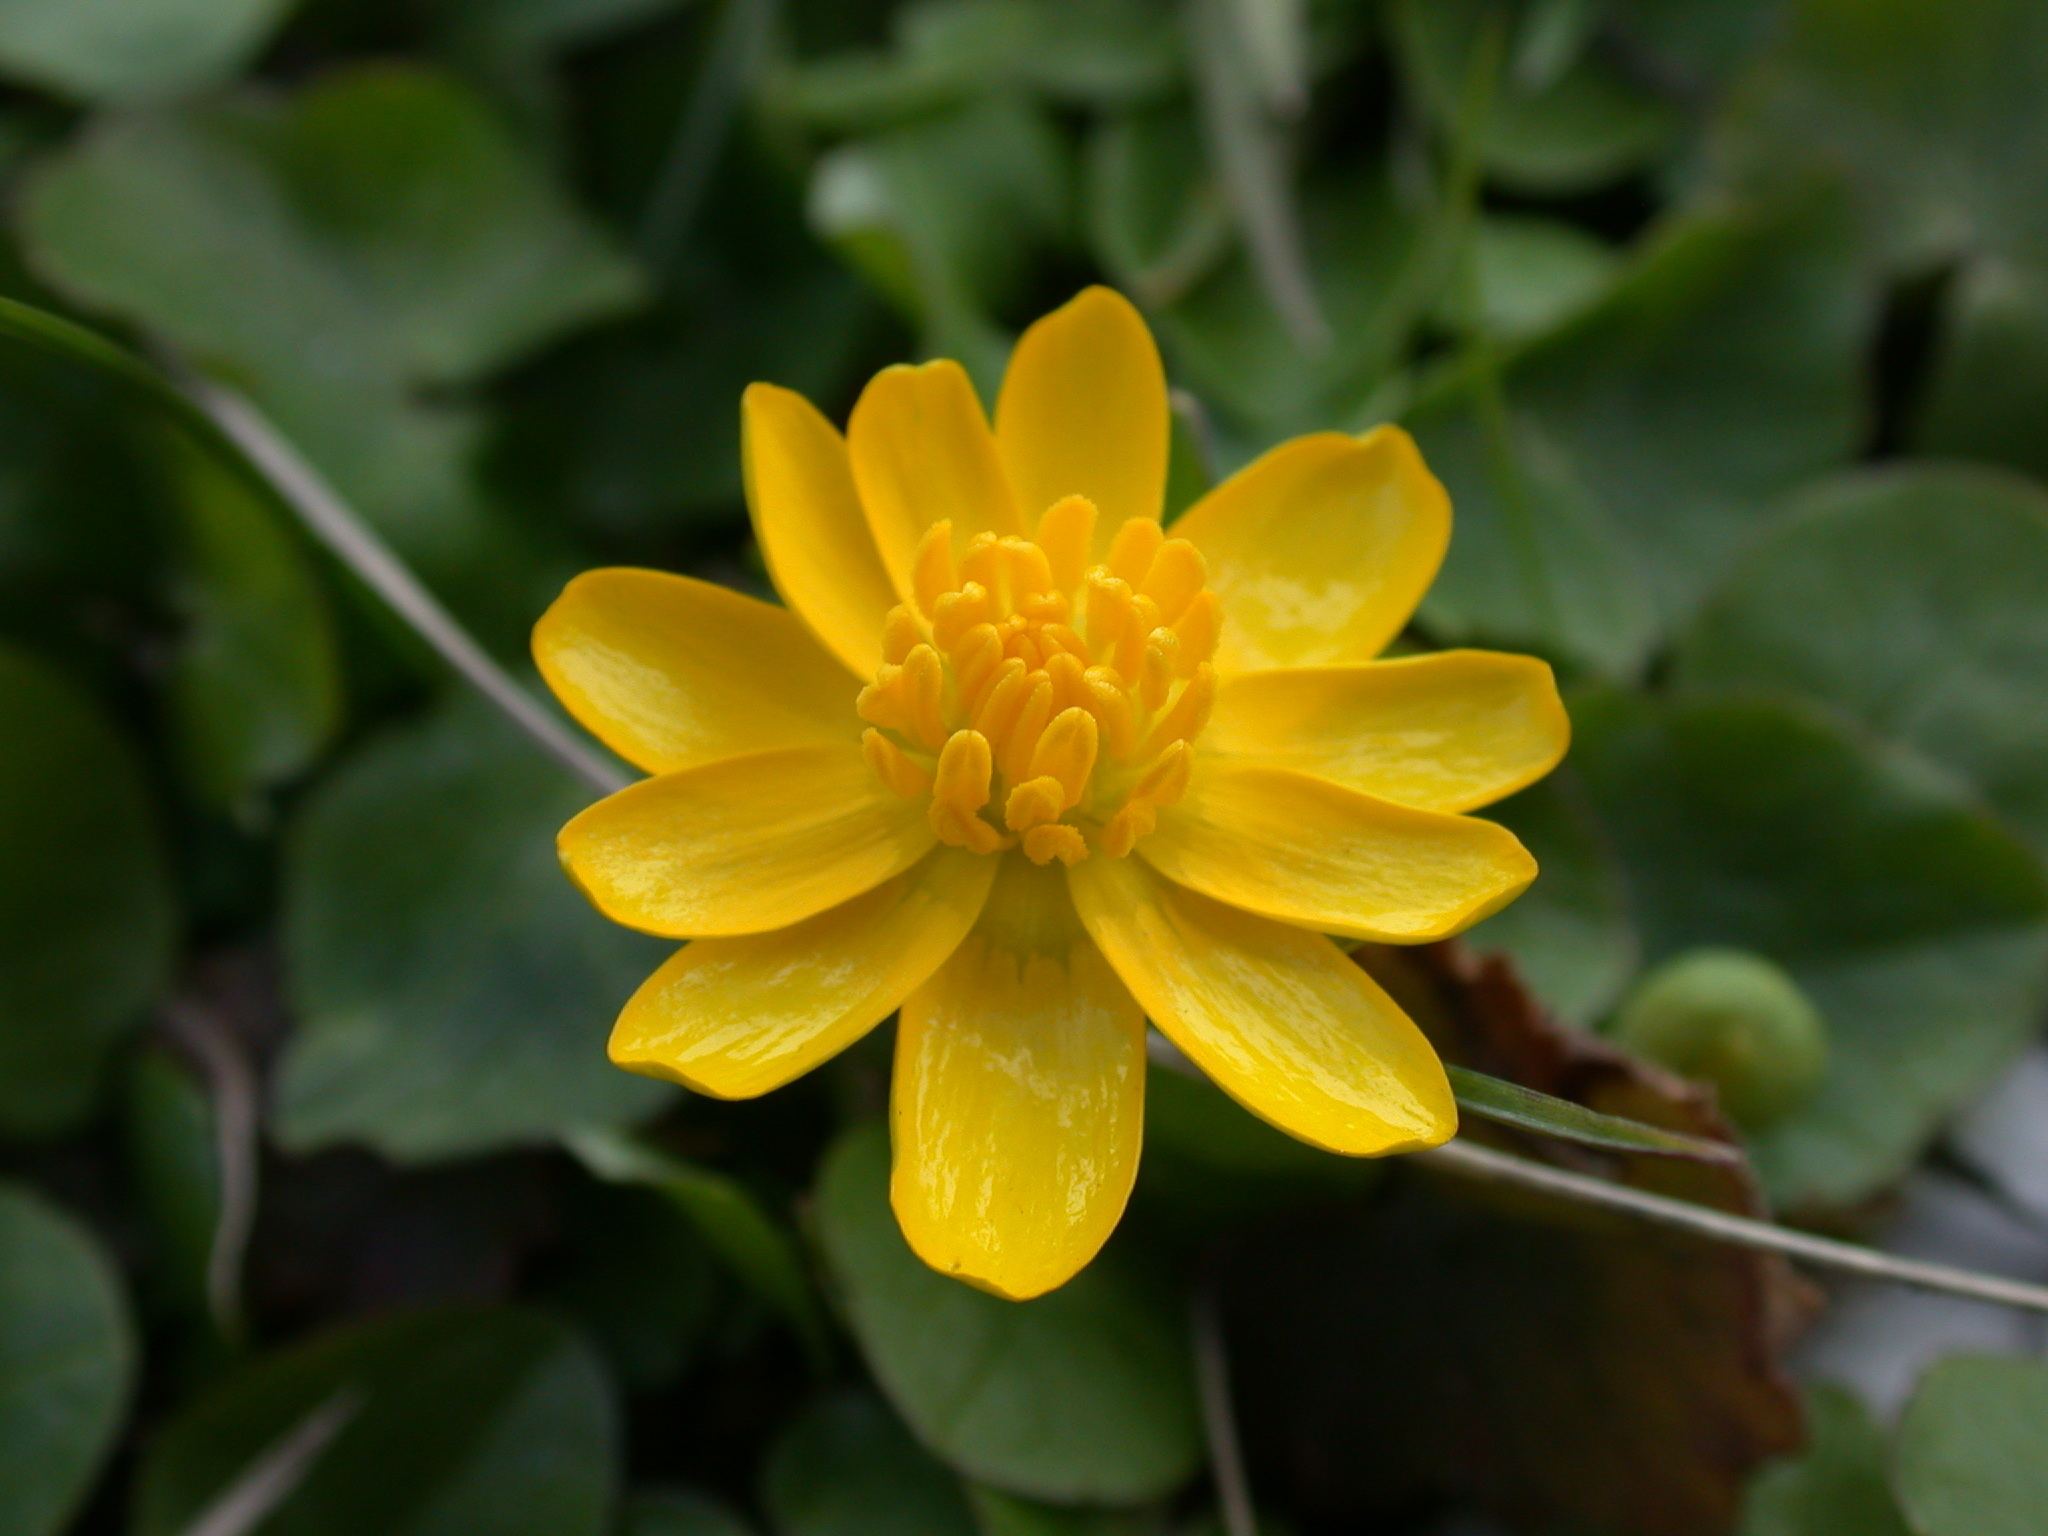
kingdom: Plantae
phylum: Tracheophyta
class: Magnoliopsida
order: Ranunculales
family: Ranunculaceae
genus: Ficaria
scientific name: Ficaria verna
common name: Lesser celandine
